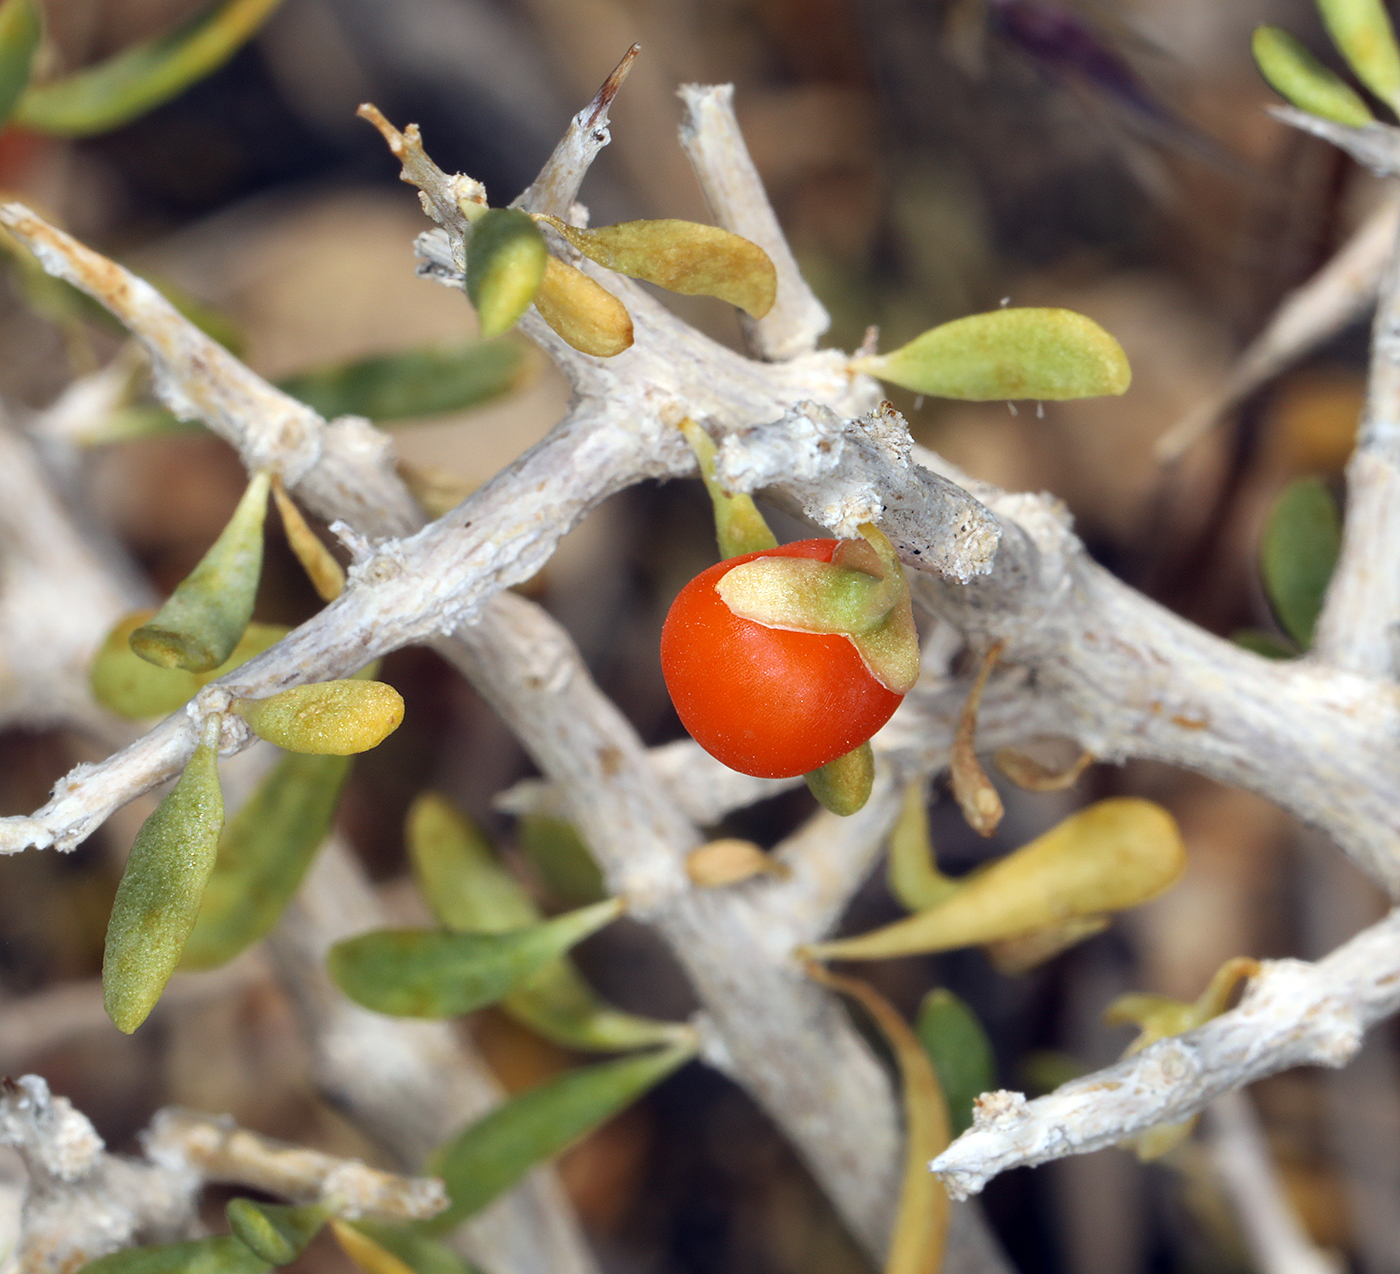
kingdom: Plantae
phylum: Tracheophyta
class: Magnoliopsida
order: Solanales
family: Solanaceae
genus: Lycium
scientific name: Lycium andersonii
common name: Water-jacket
